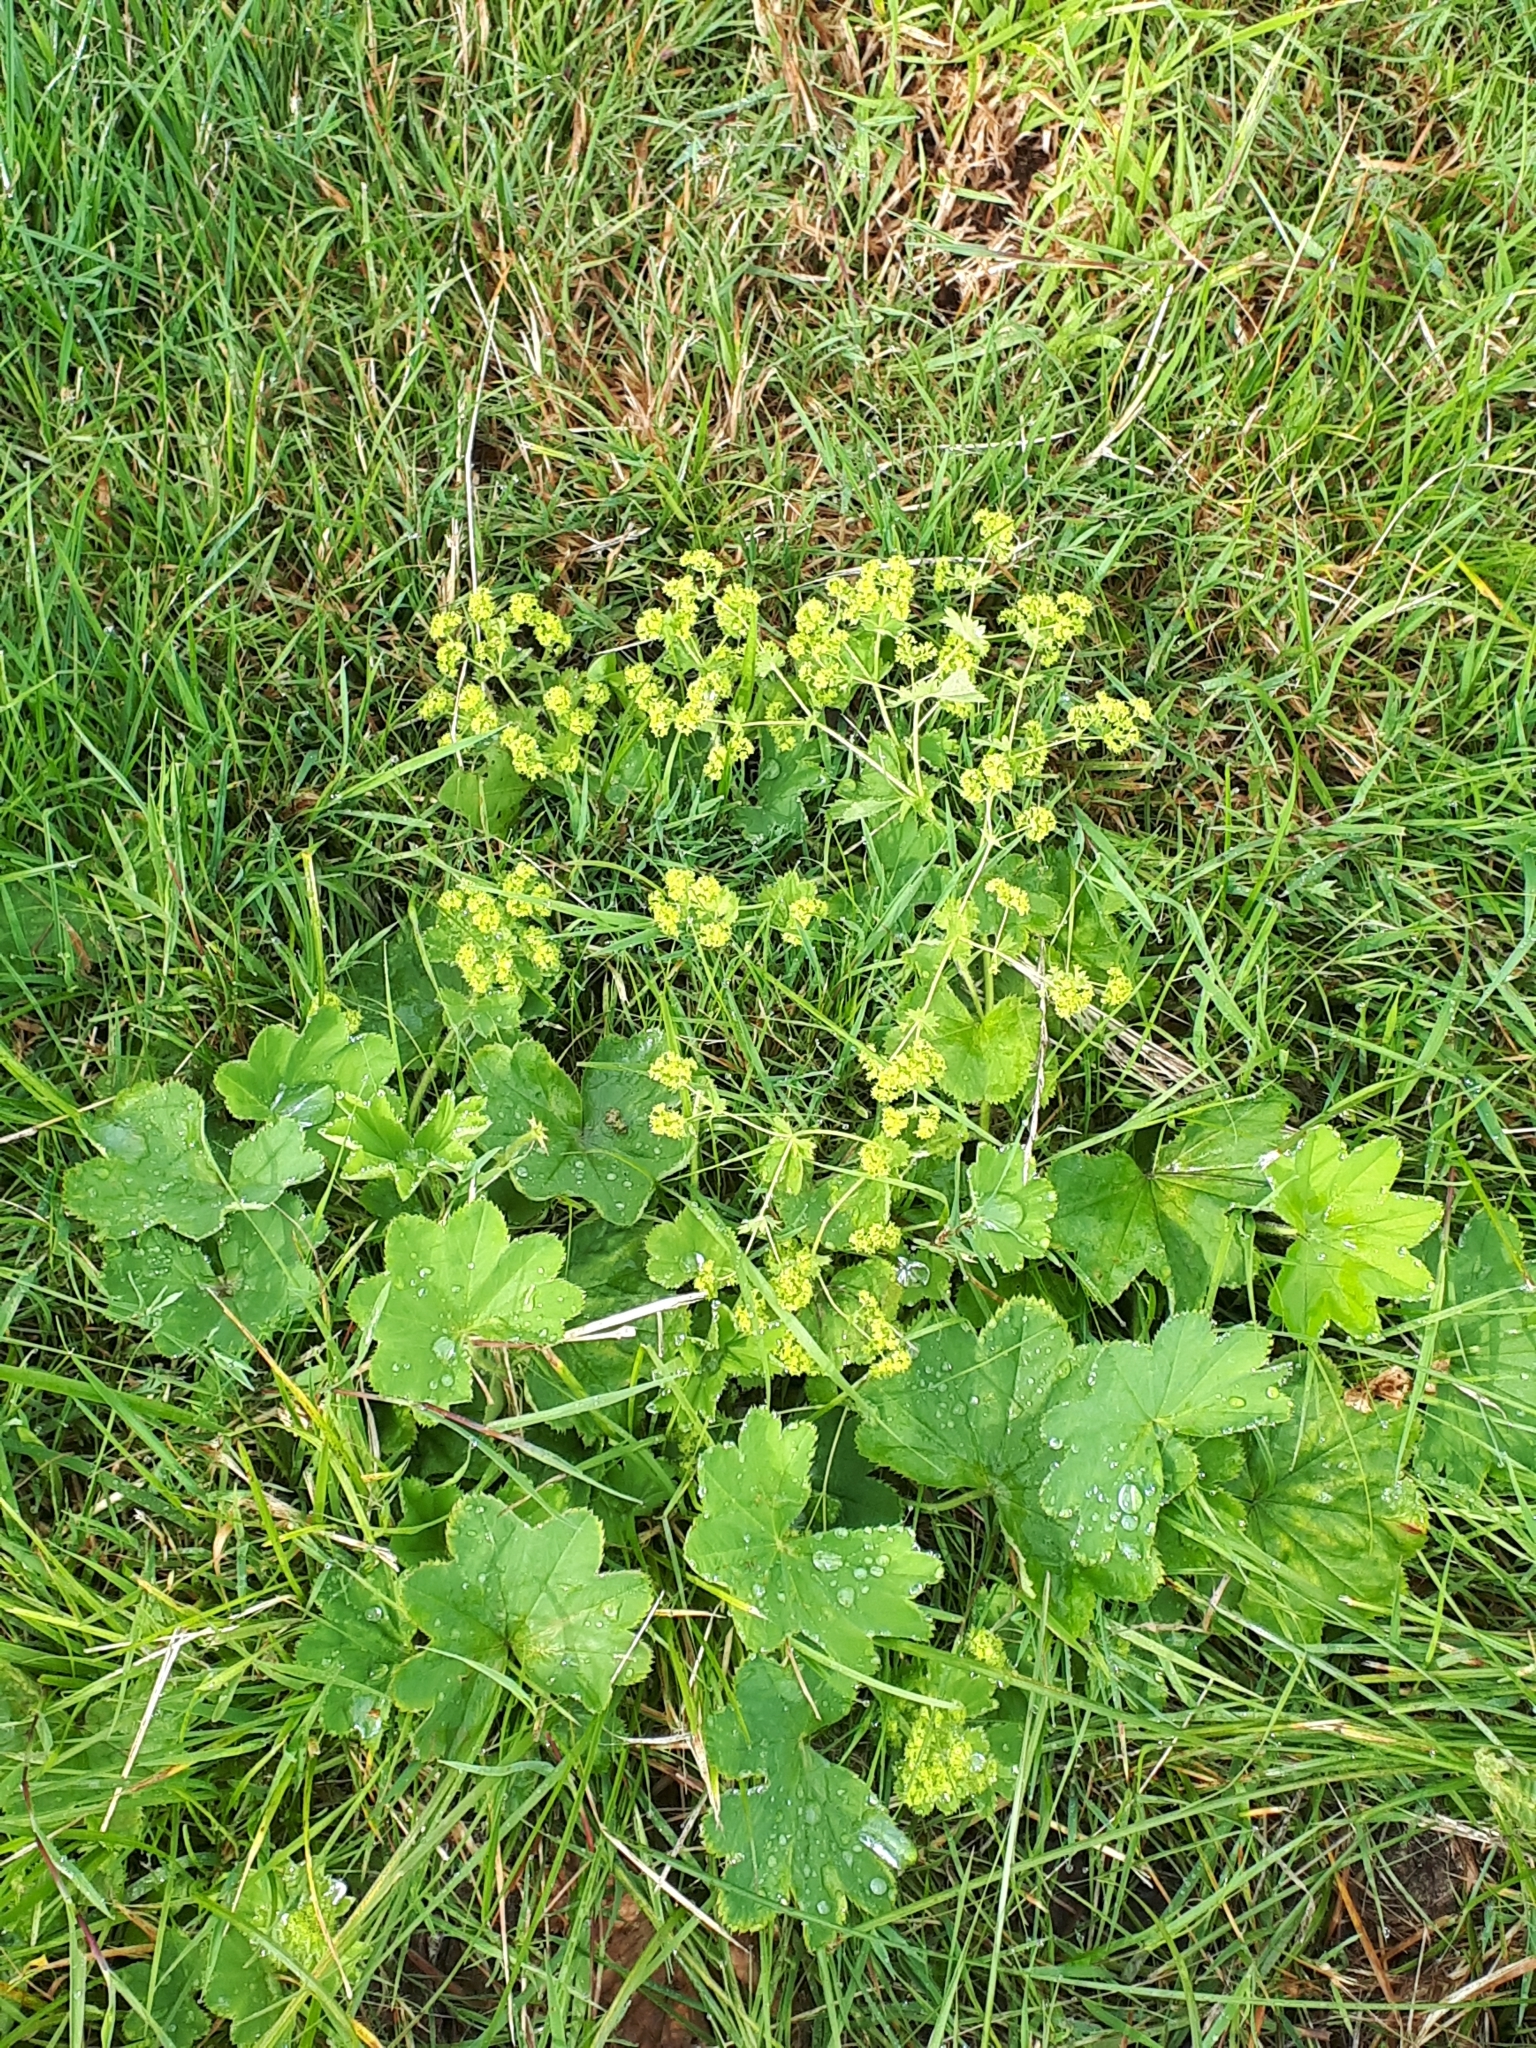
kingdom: Plantae
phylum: Tracheophyta
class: Magnoliopsida
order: Rosales
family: Rosaceae
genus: Alchemilla
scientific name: Alchemilla xanthochlora
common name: Intermediate lady's-mantle
